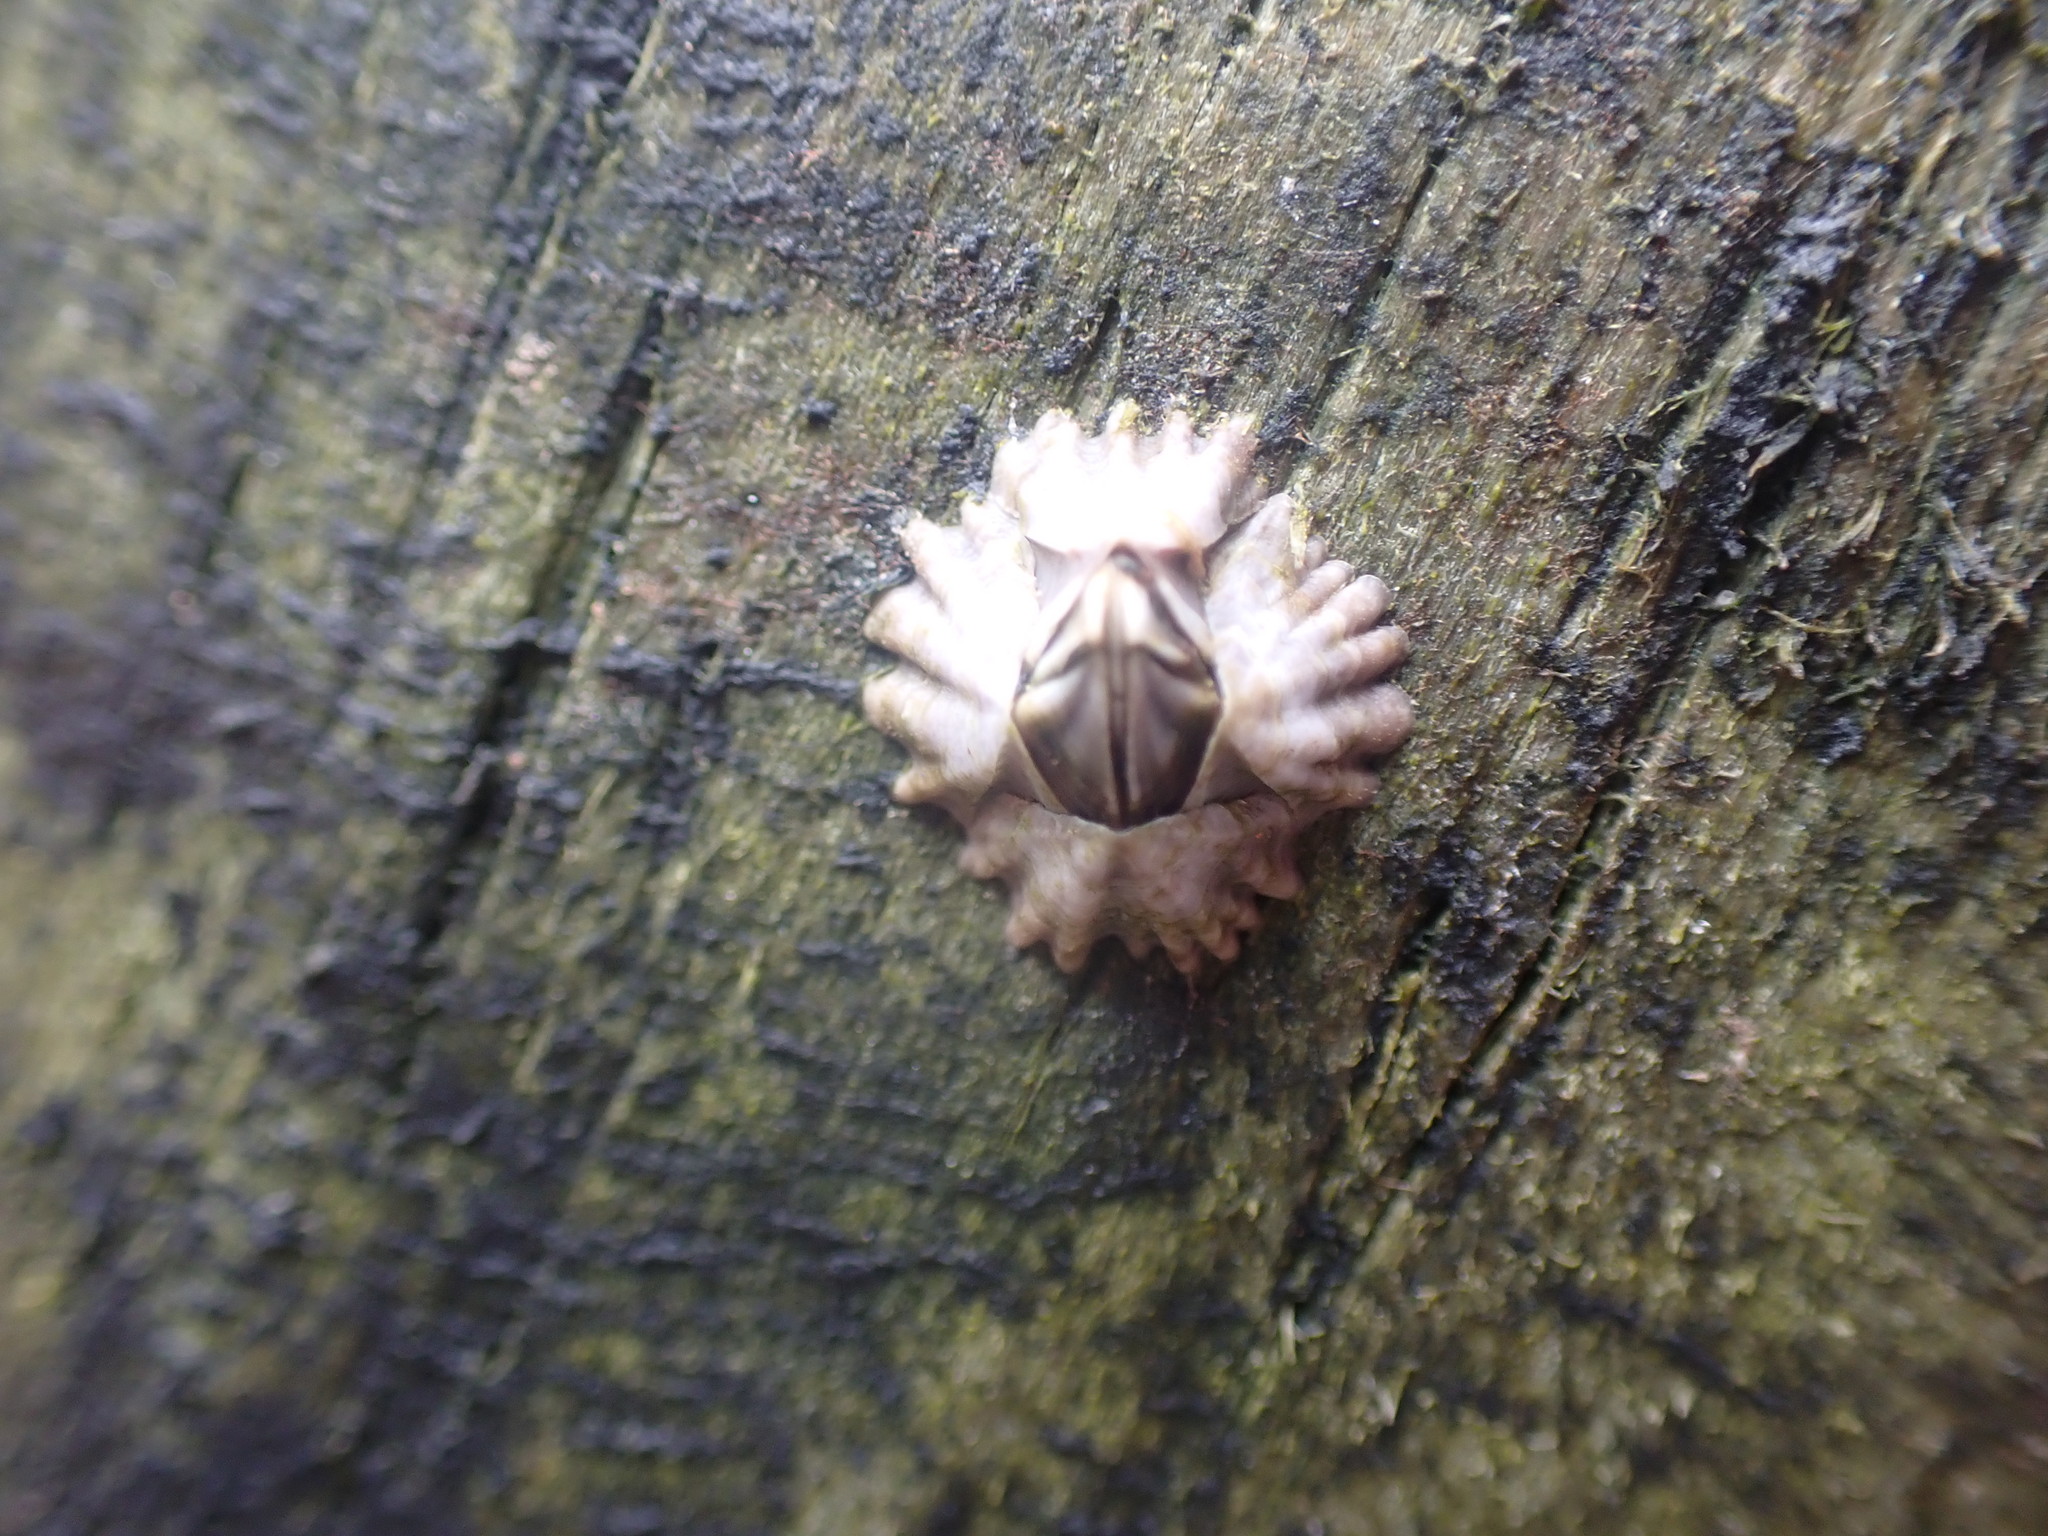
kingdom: Animalia
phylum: Arthropoda
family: Elminiidae
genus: Austrominius
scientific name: Austrominius modestus
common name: Australasian barnacle
